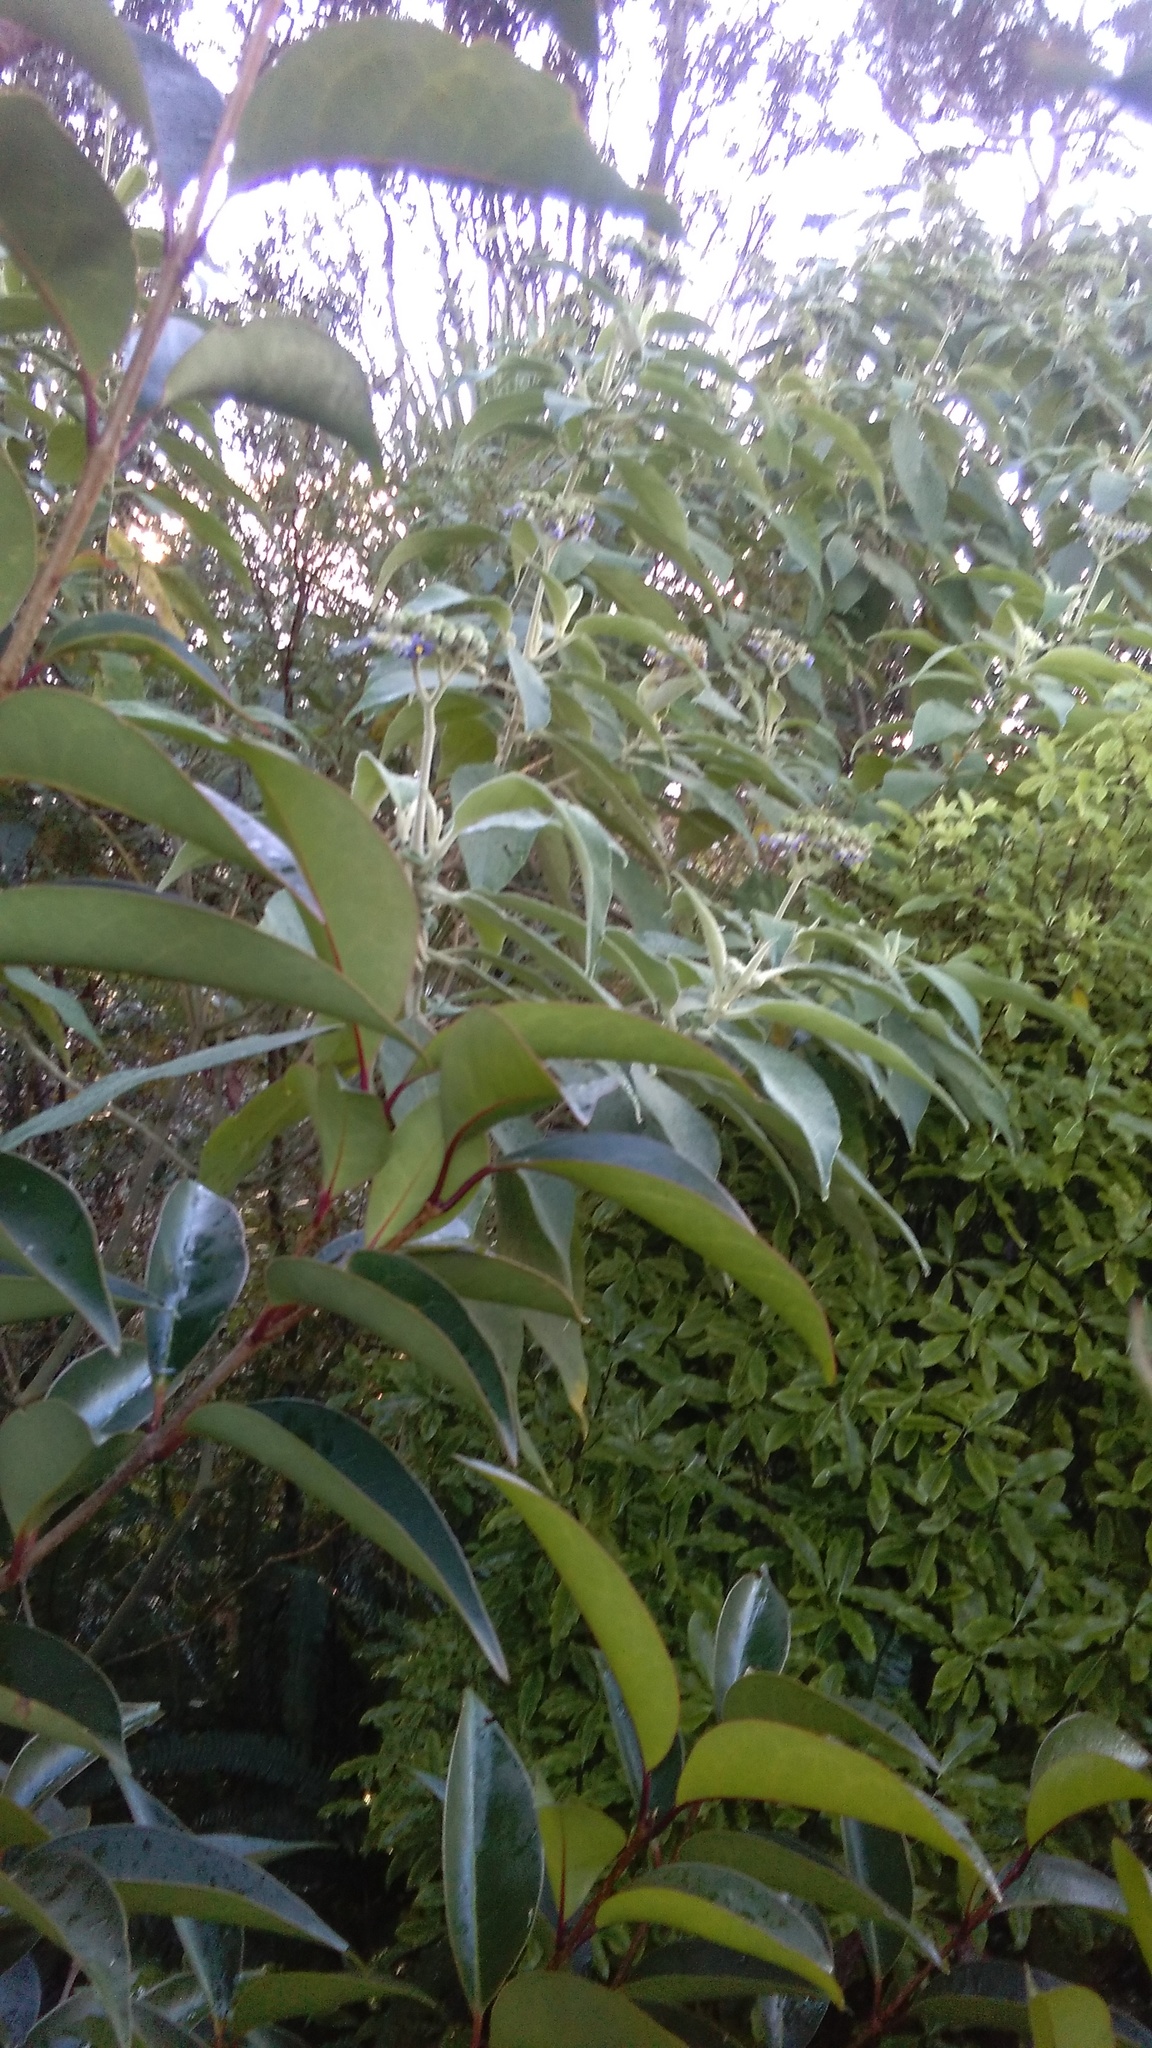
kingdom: Plantae
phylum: Tracheophyta
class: Magnoliopsida
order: Solanales
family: Solanaceae
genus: Solanum
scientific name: Solanum mauritianum
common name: Earleaf nightshade
